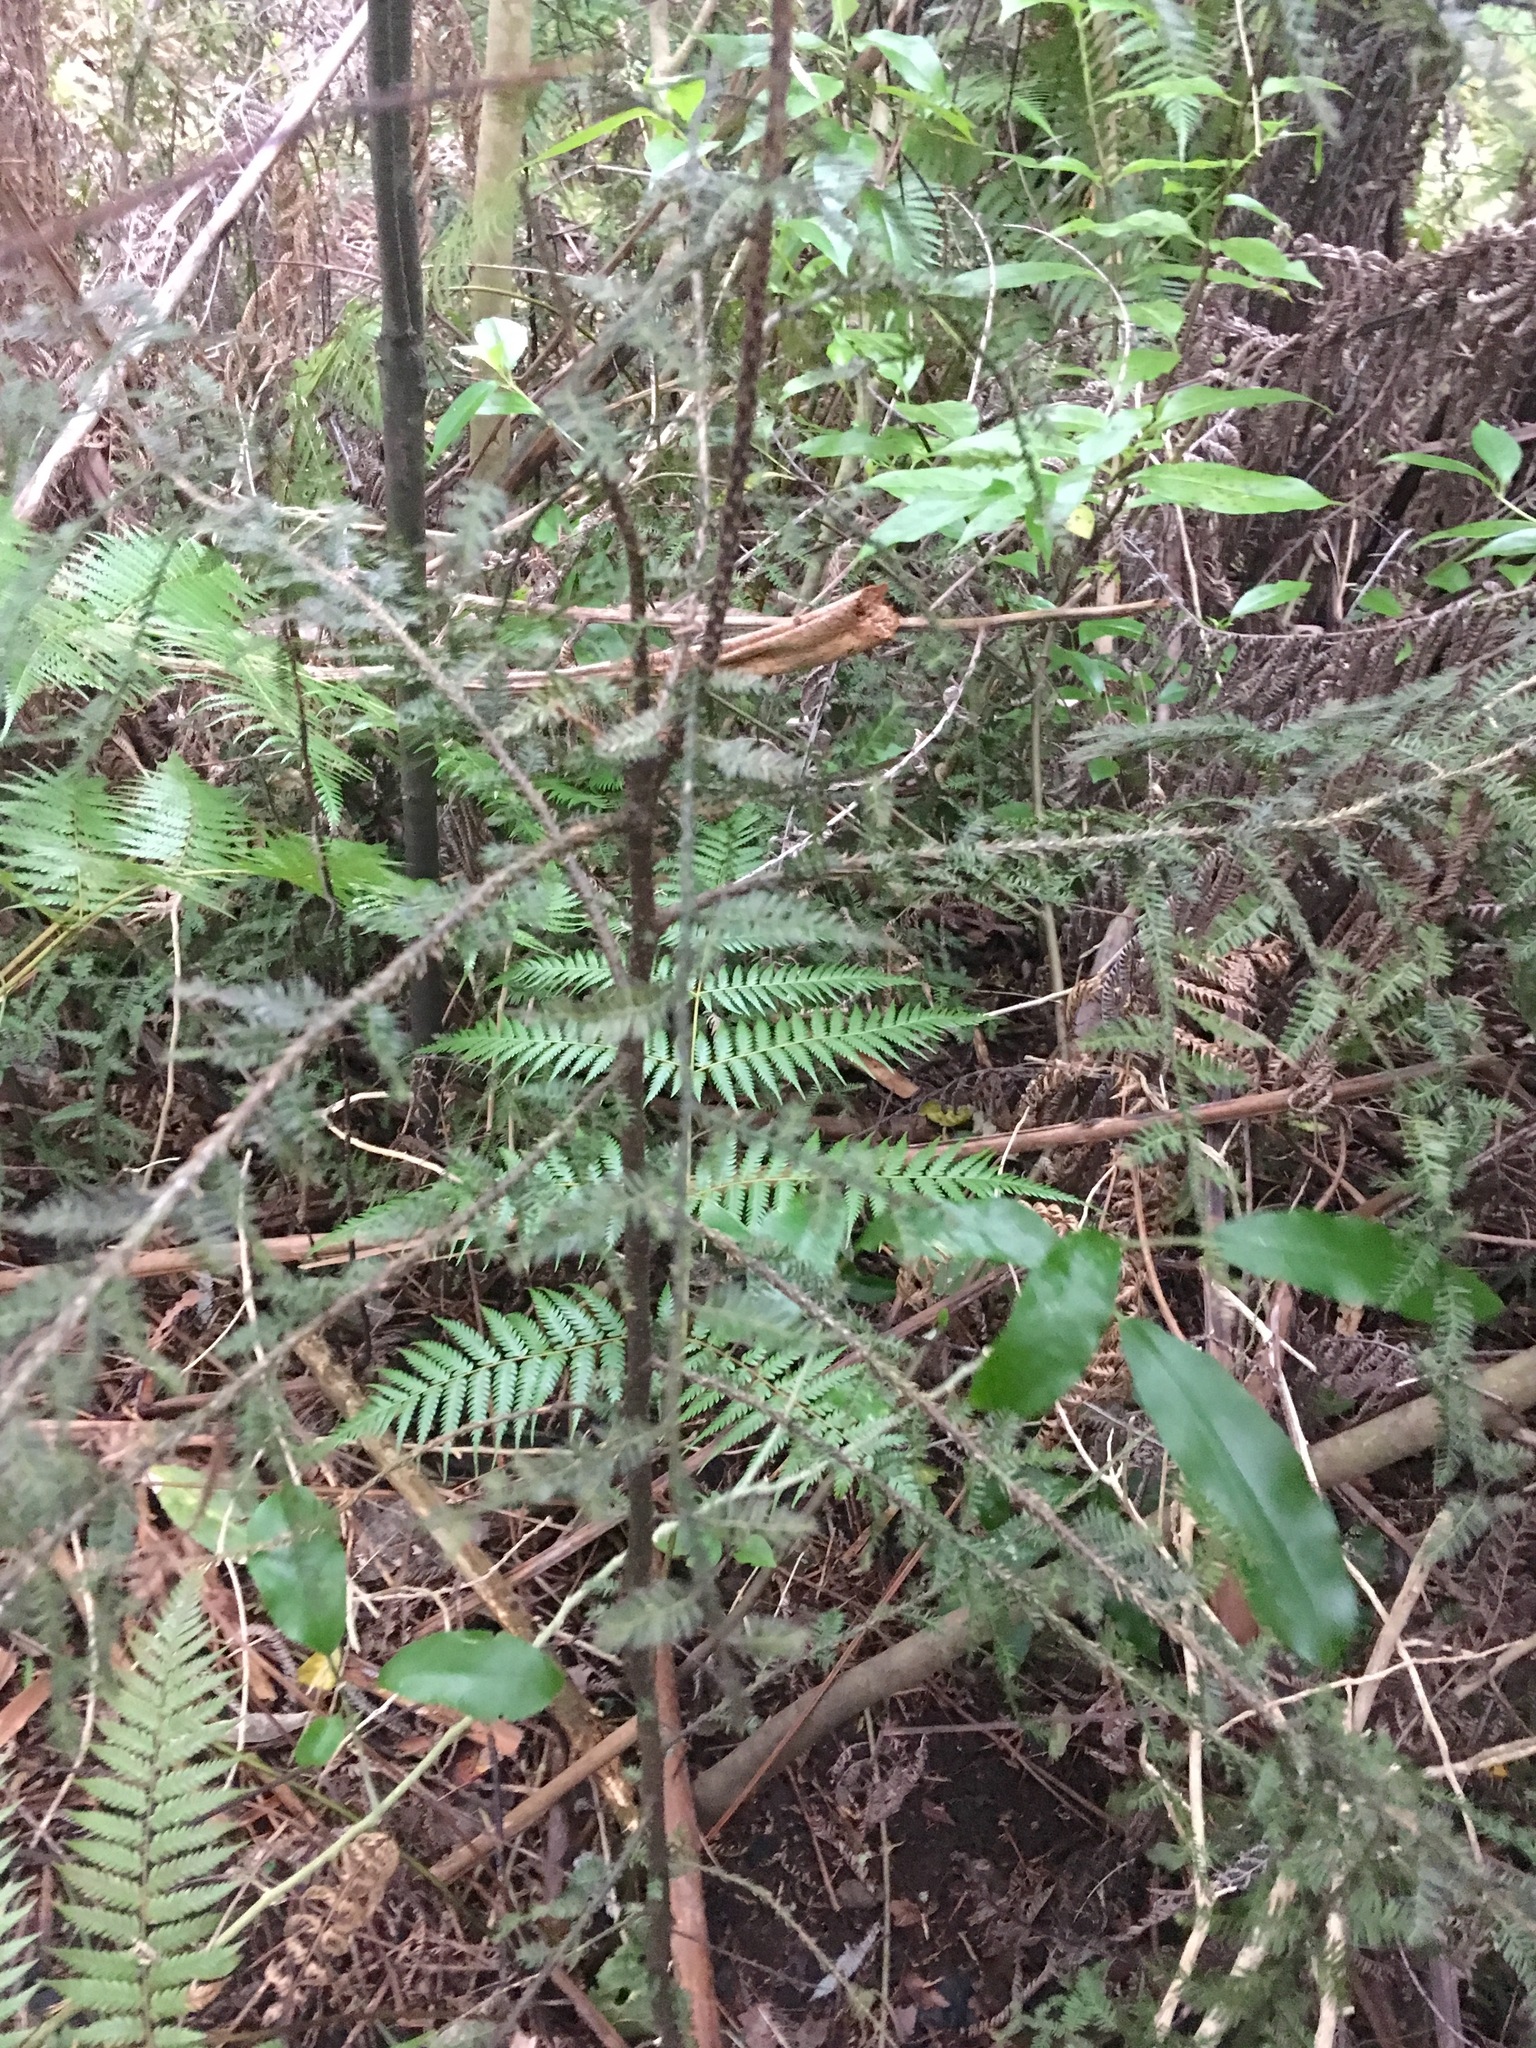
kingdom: Plantae
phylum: Tracheophyta
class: Pinopsida
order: Pinales
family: Podocarpaceae
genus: Dacrycarpus
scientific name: Dacrycarpus dacrydioides
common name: White pine
